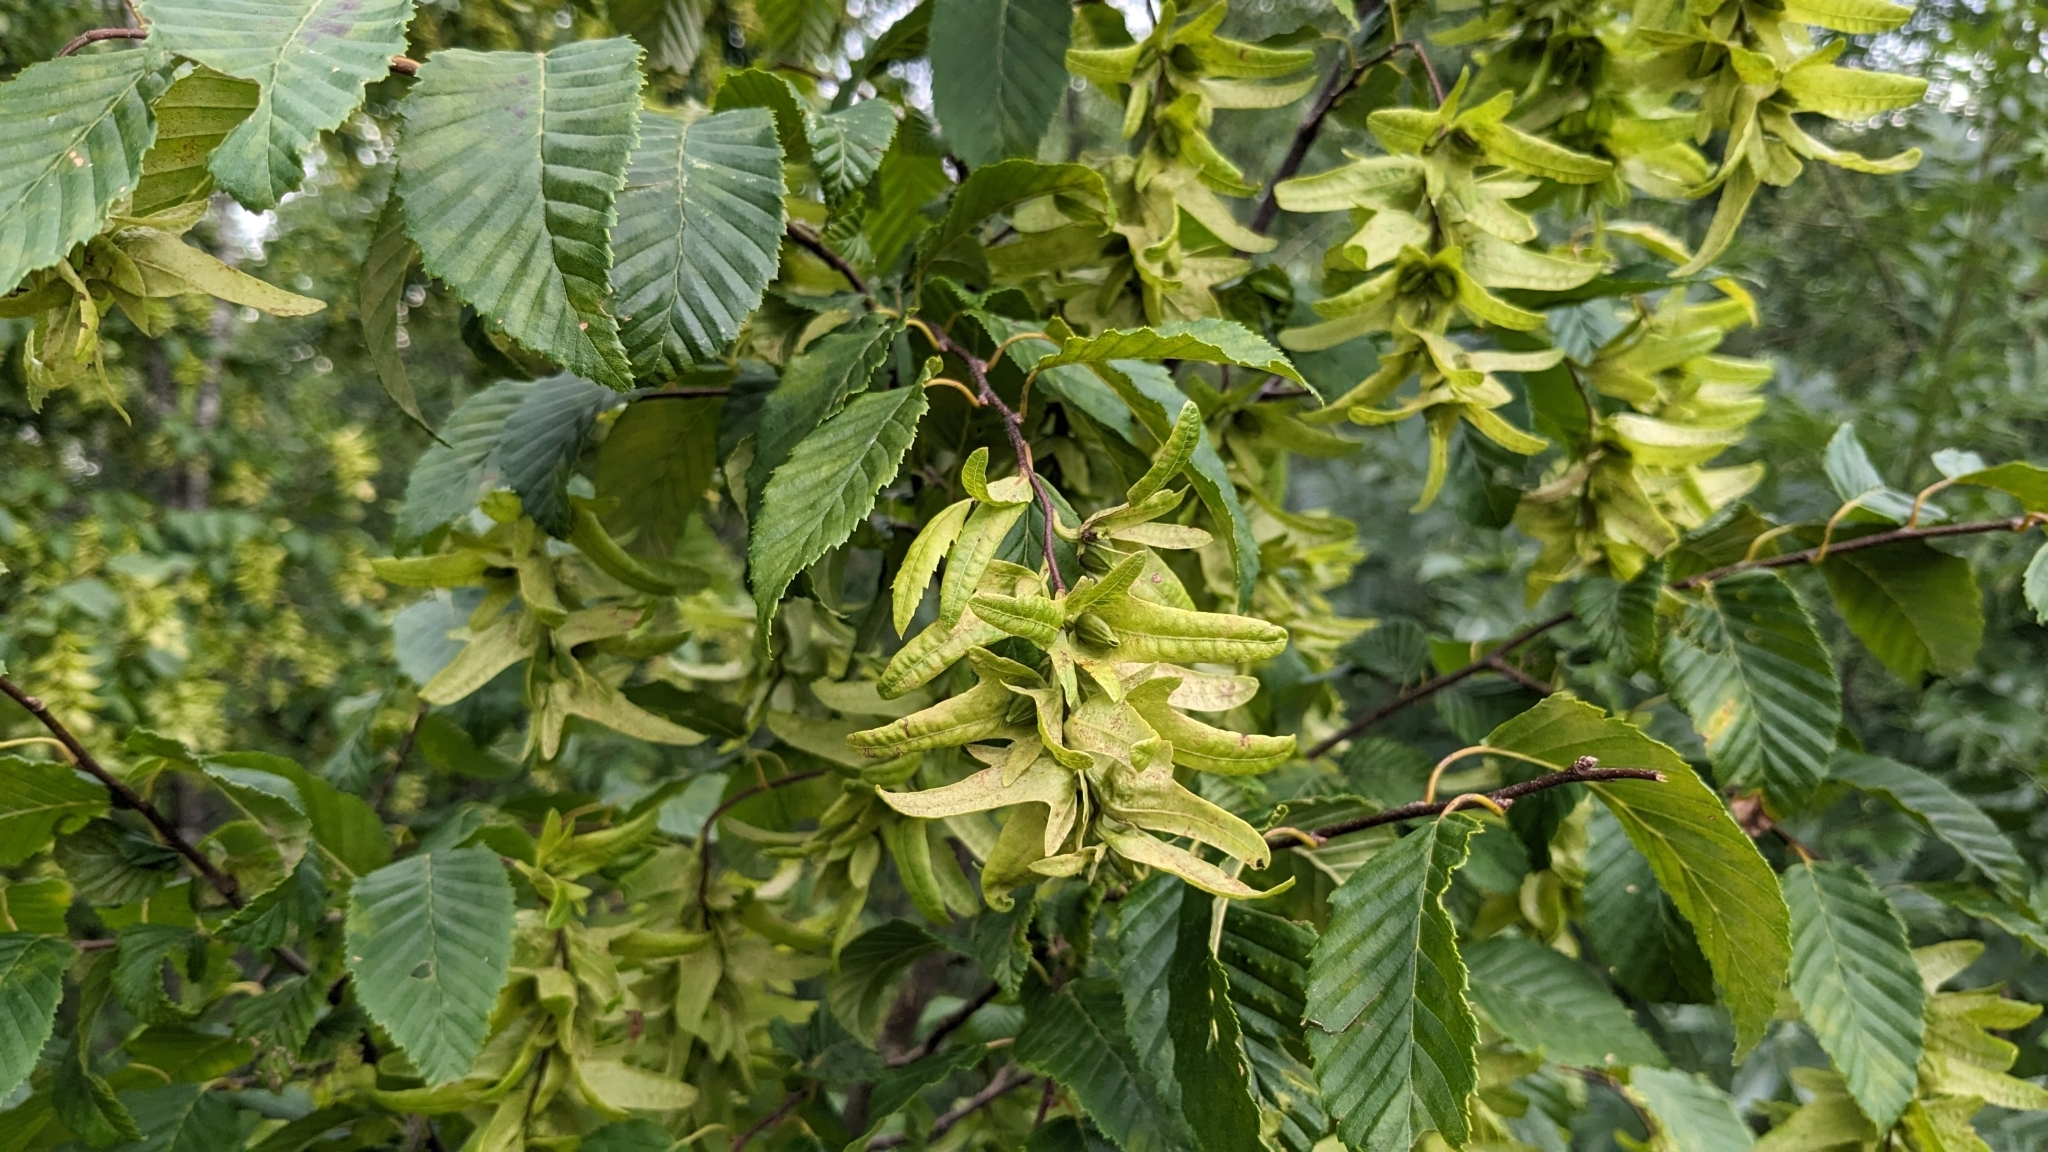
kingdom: Plantae
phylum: Tracheophyta
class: Magnoliopsida
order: Fagales
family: Betulaceae
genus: Carpinus
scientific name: Carpinus betulus
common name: Hornbeam
